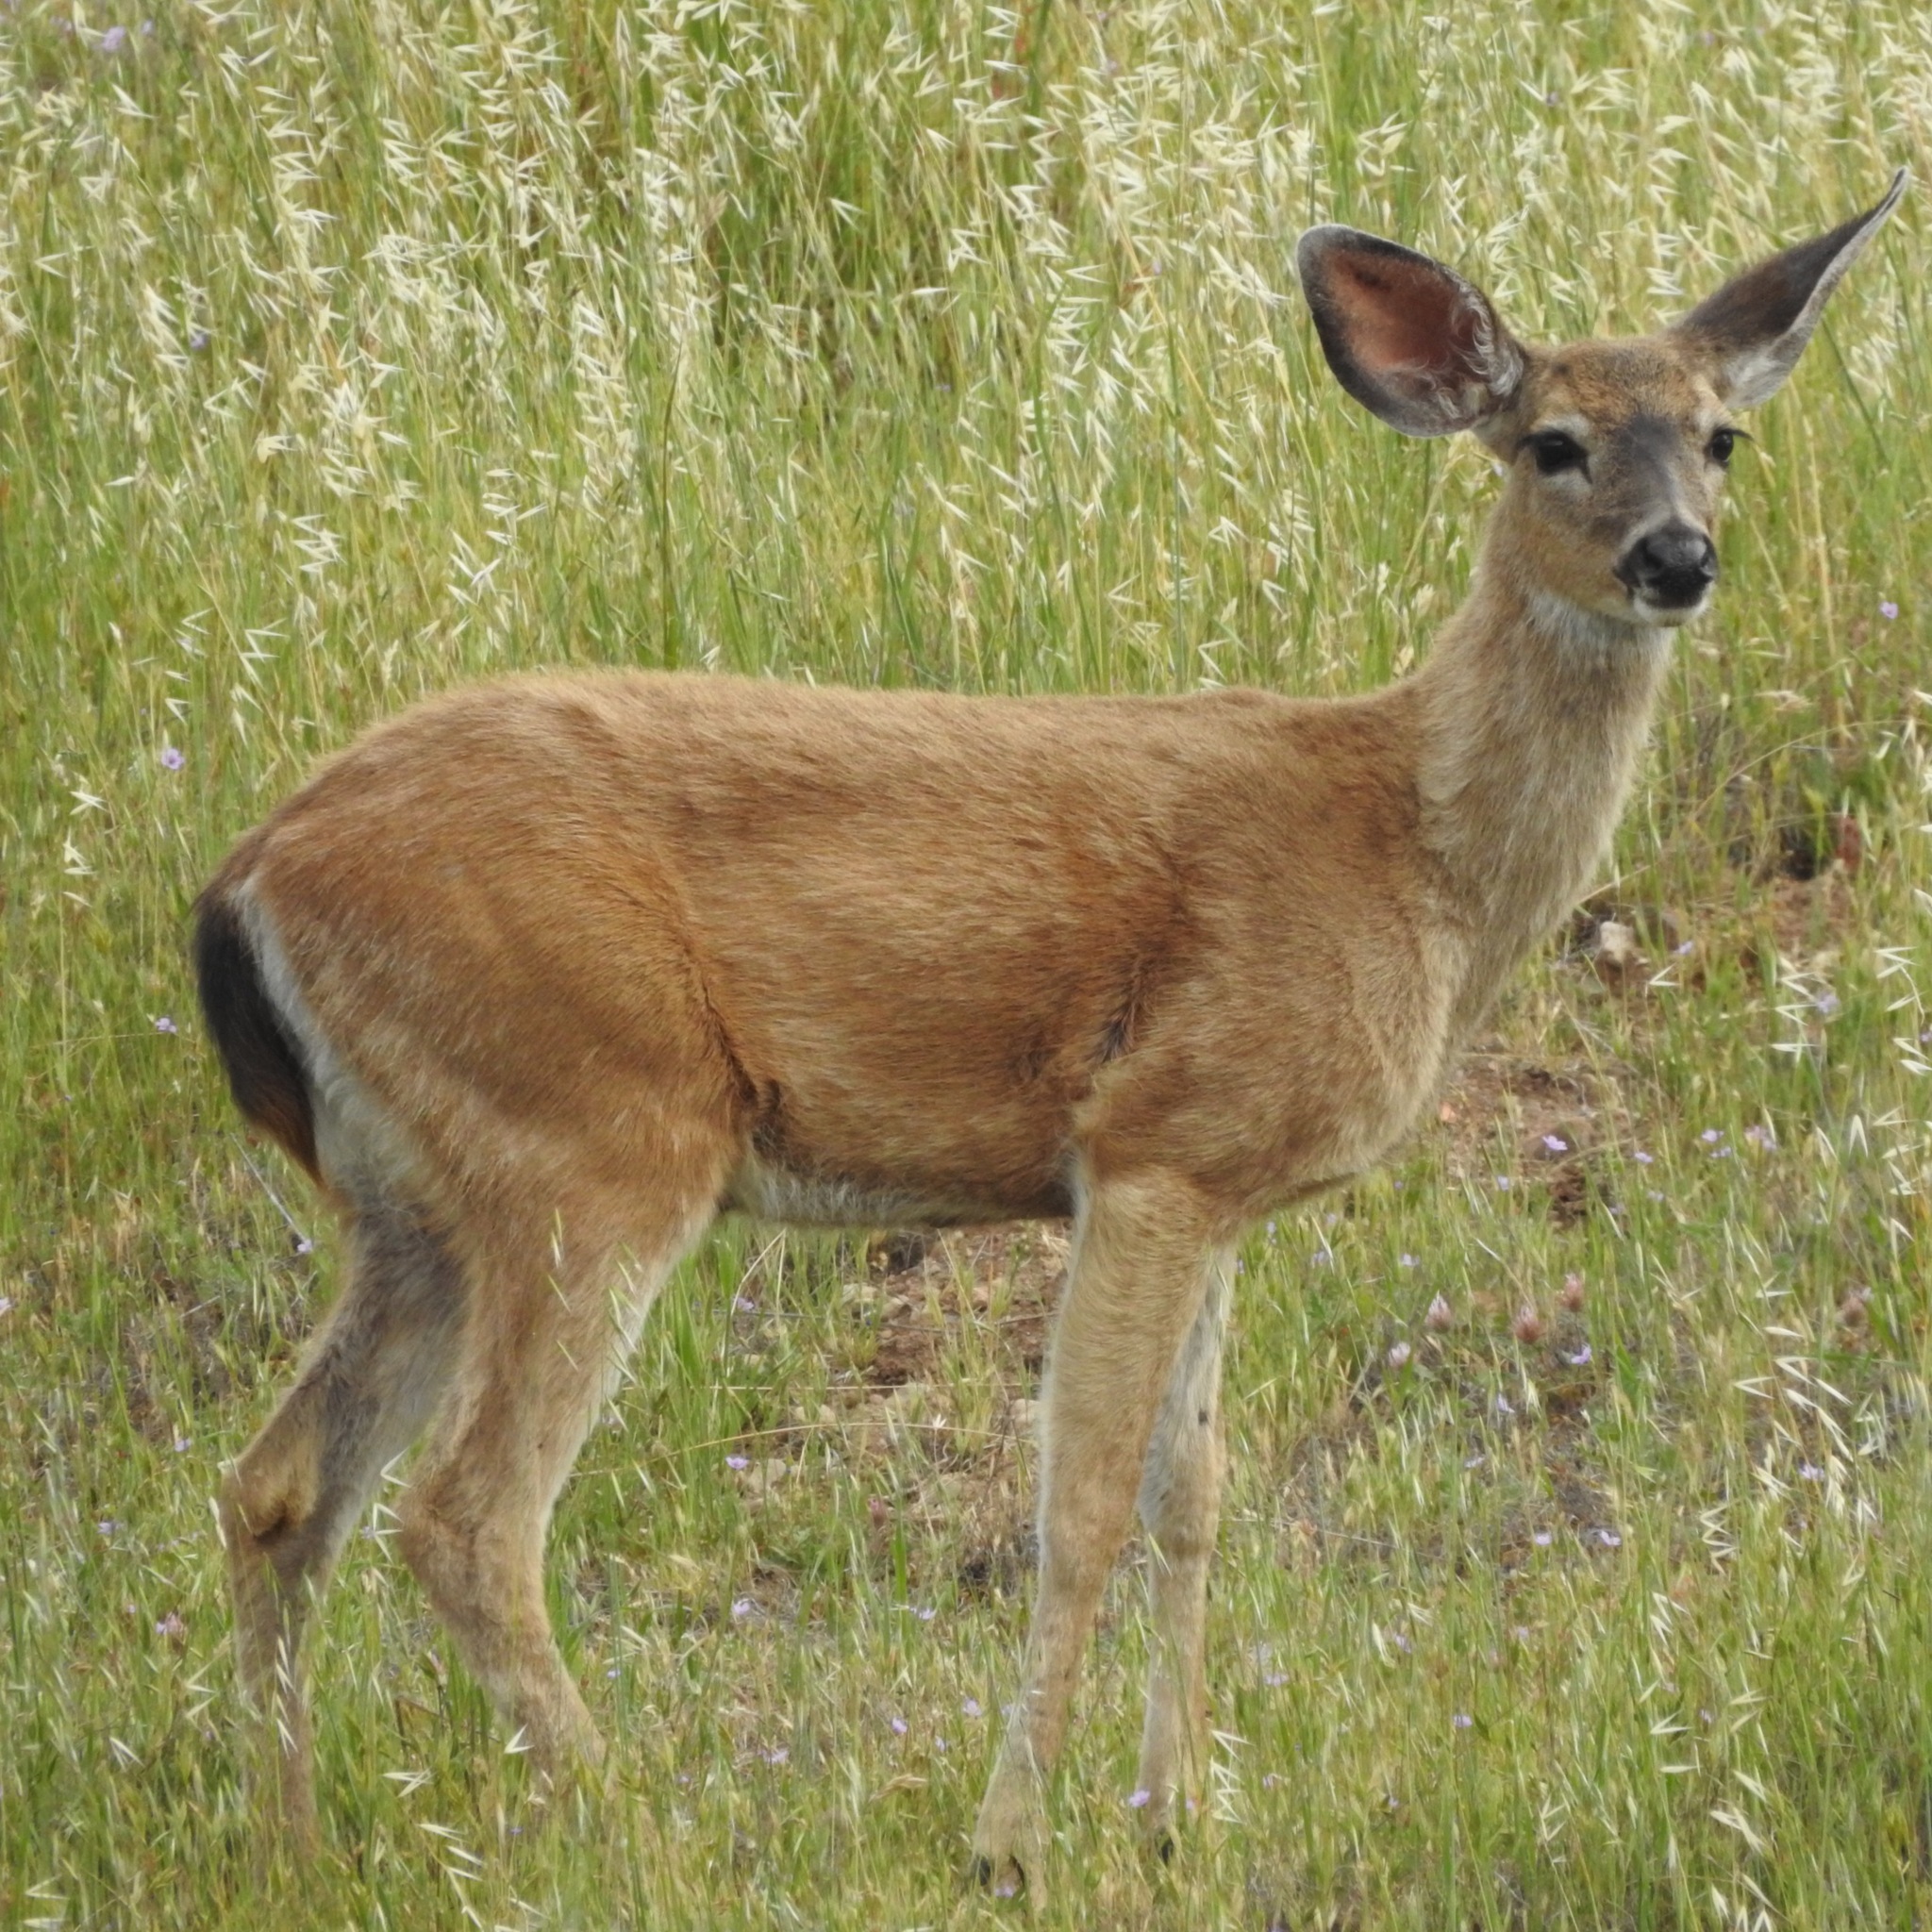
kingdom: Animalia
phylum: Chordata
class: Mammalia
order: Artiodactyla
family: Cervidae
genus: Odocoileus
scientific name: Odocoileus hemionus
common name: Mule deer
